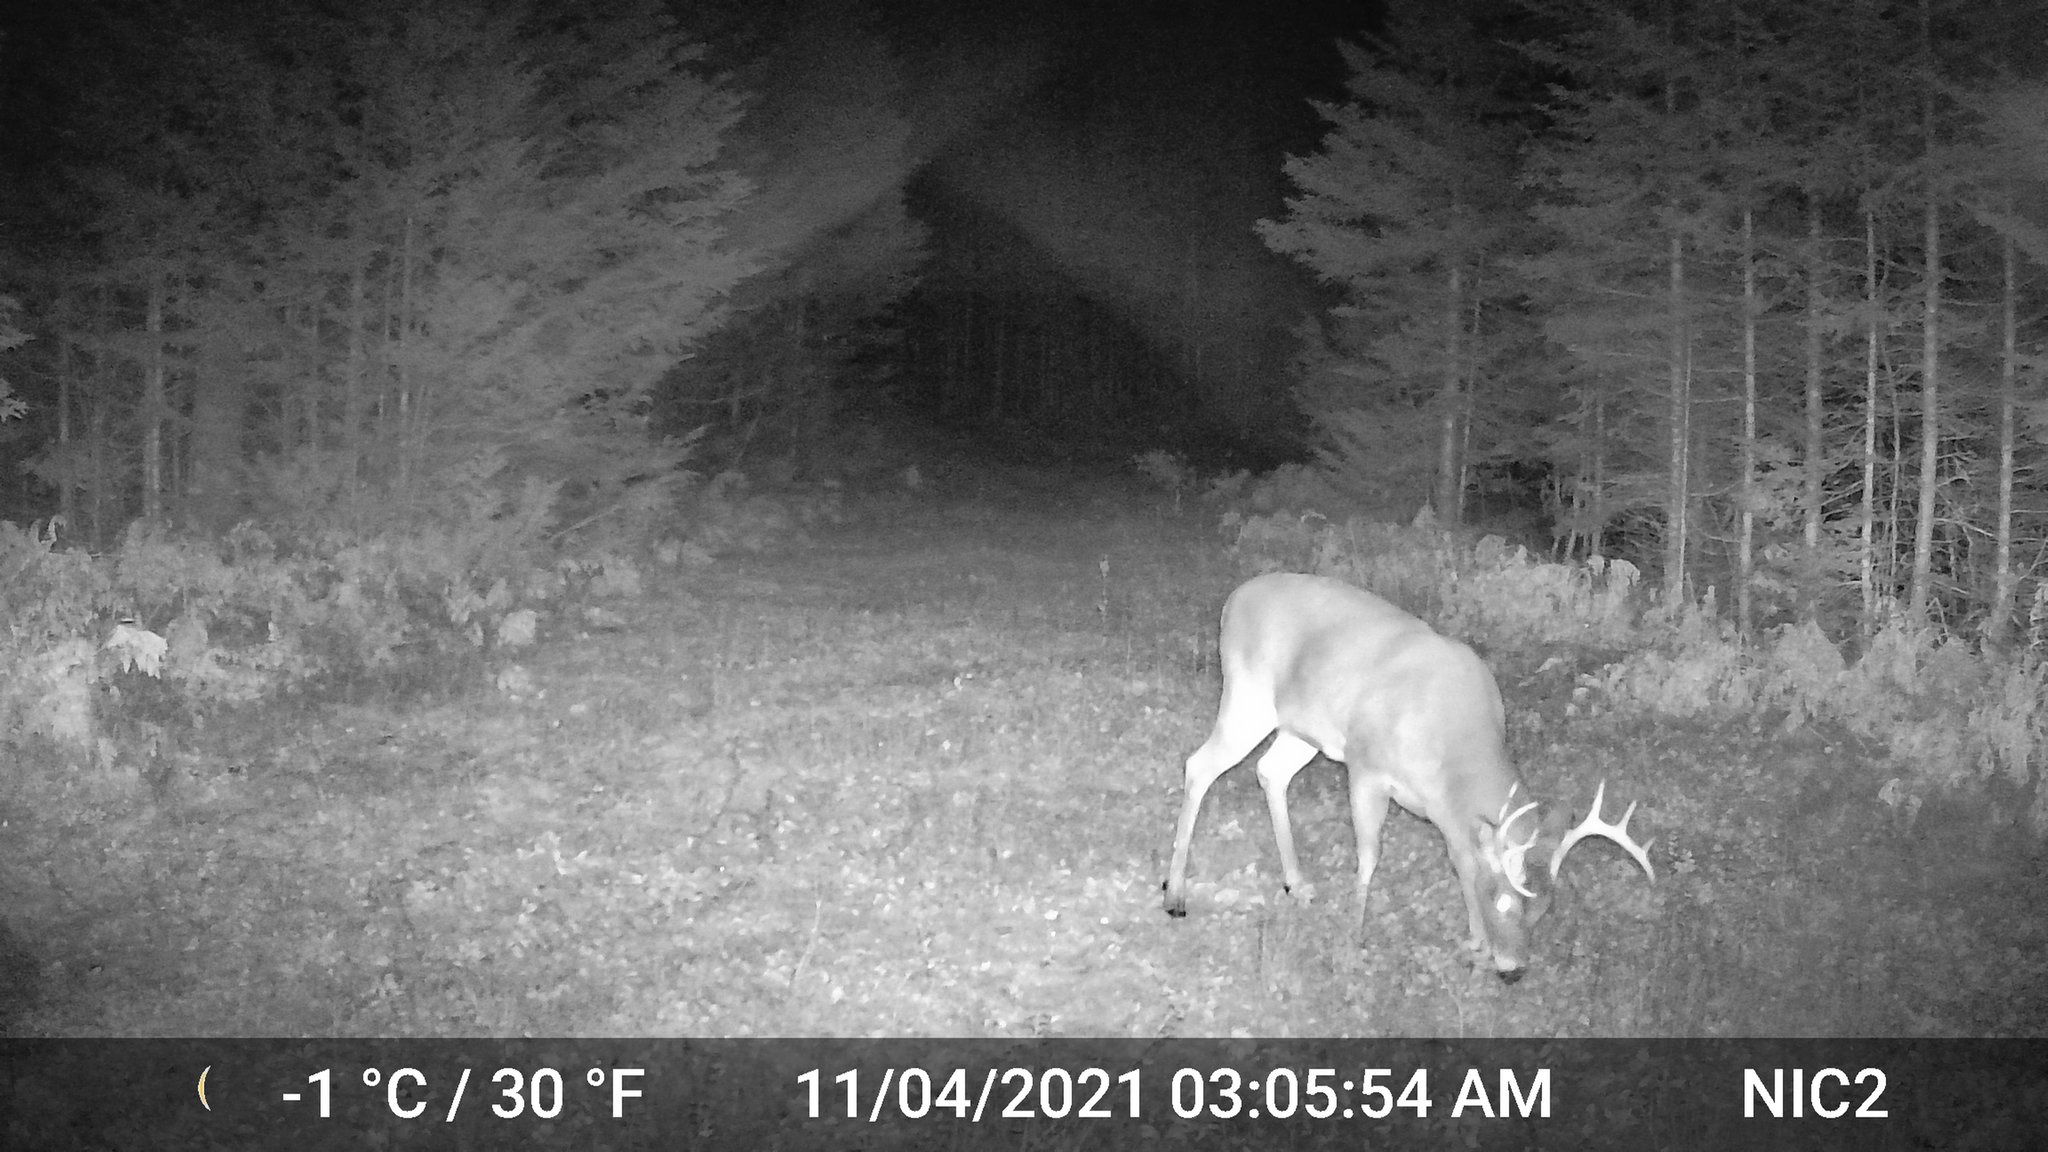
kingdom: Animalia
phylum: Chordata
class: Mammalia
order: Artiodactyla
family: Cervidae
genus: Odocoileus
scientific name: Odocoileus virginianus
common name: White-tailed deer
